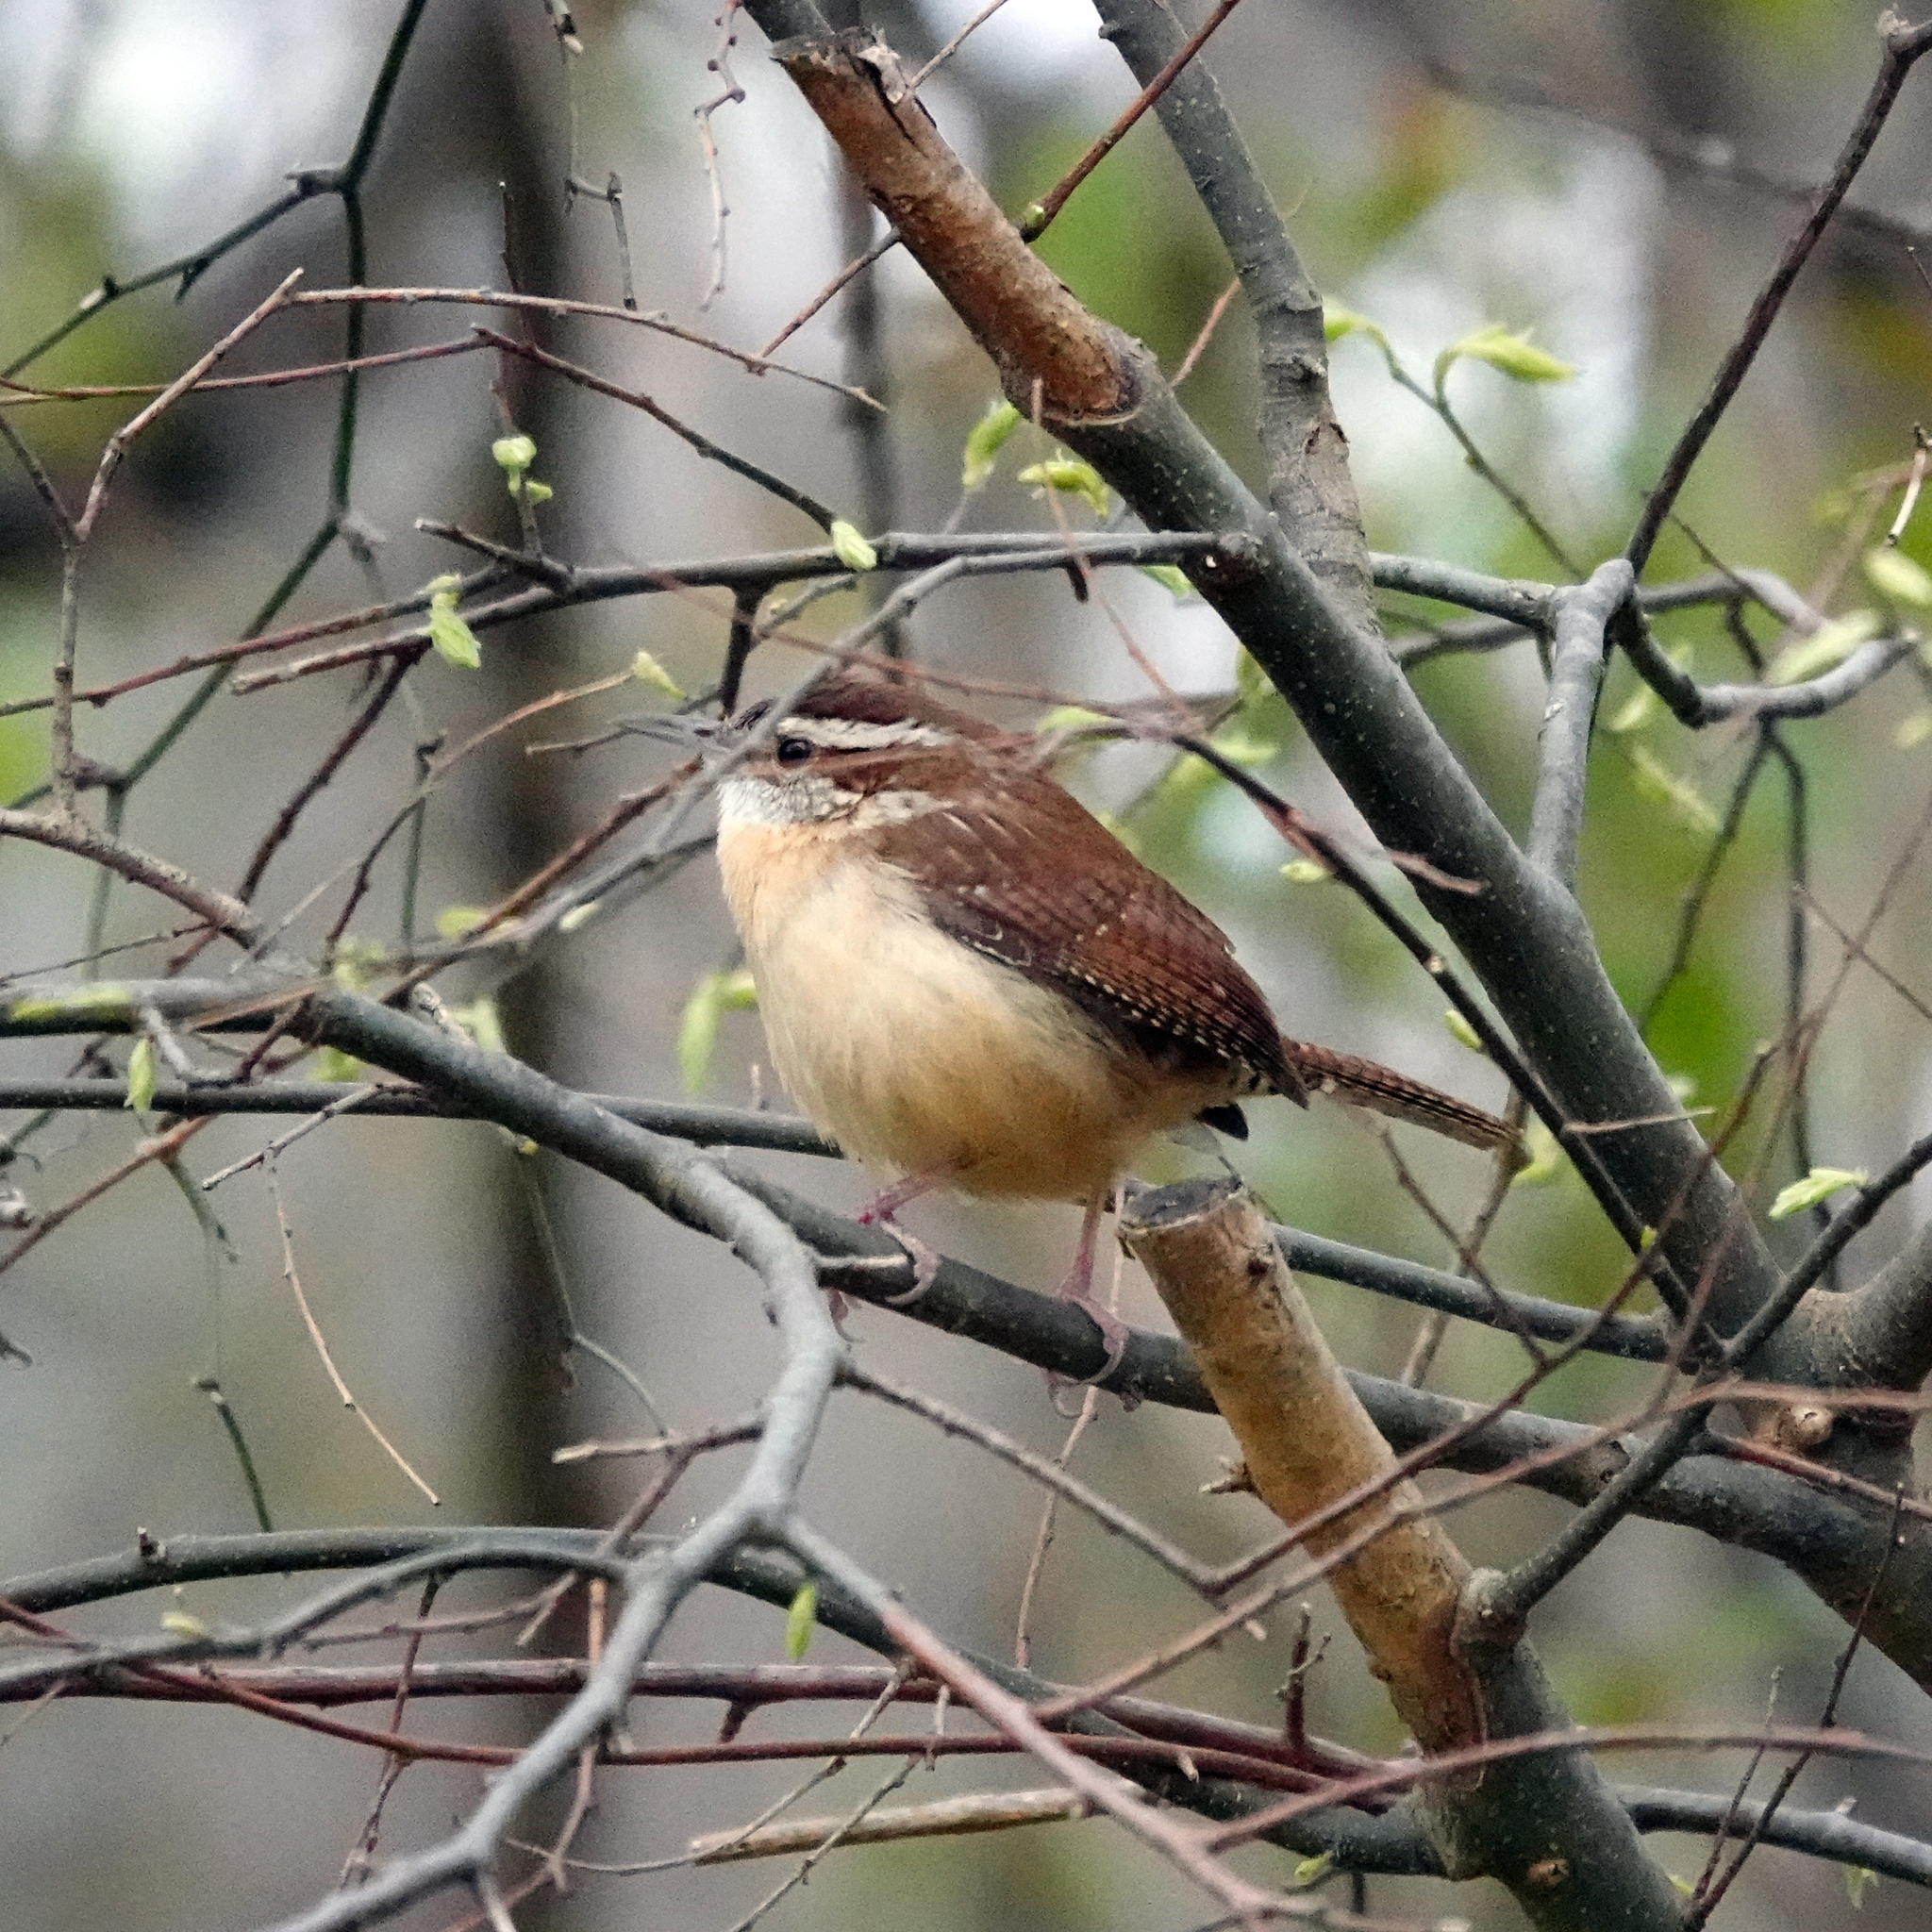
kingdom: Animalia
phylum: Chordata
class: Aves
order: Passeriformes
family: Troglodytidae
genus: Thryothorus
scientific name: Thryothorus ludovicianus
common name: Carolina wren
